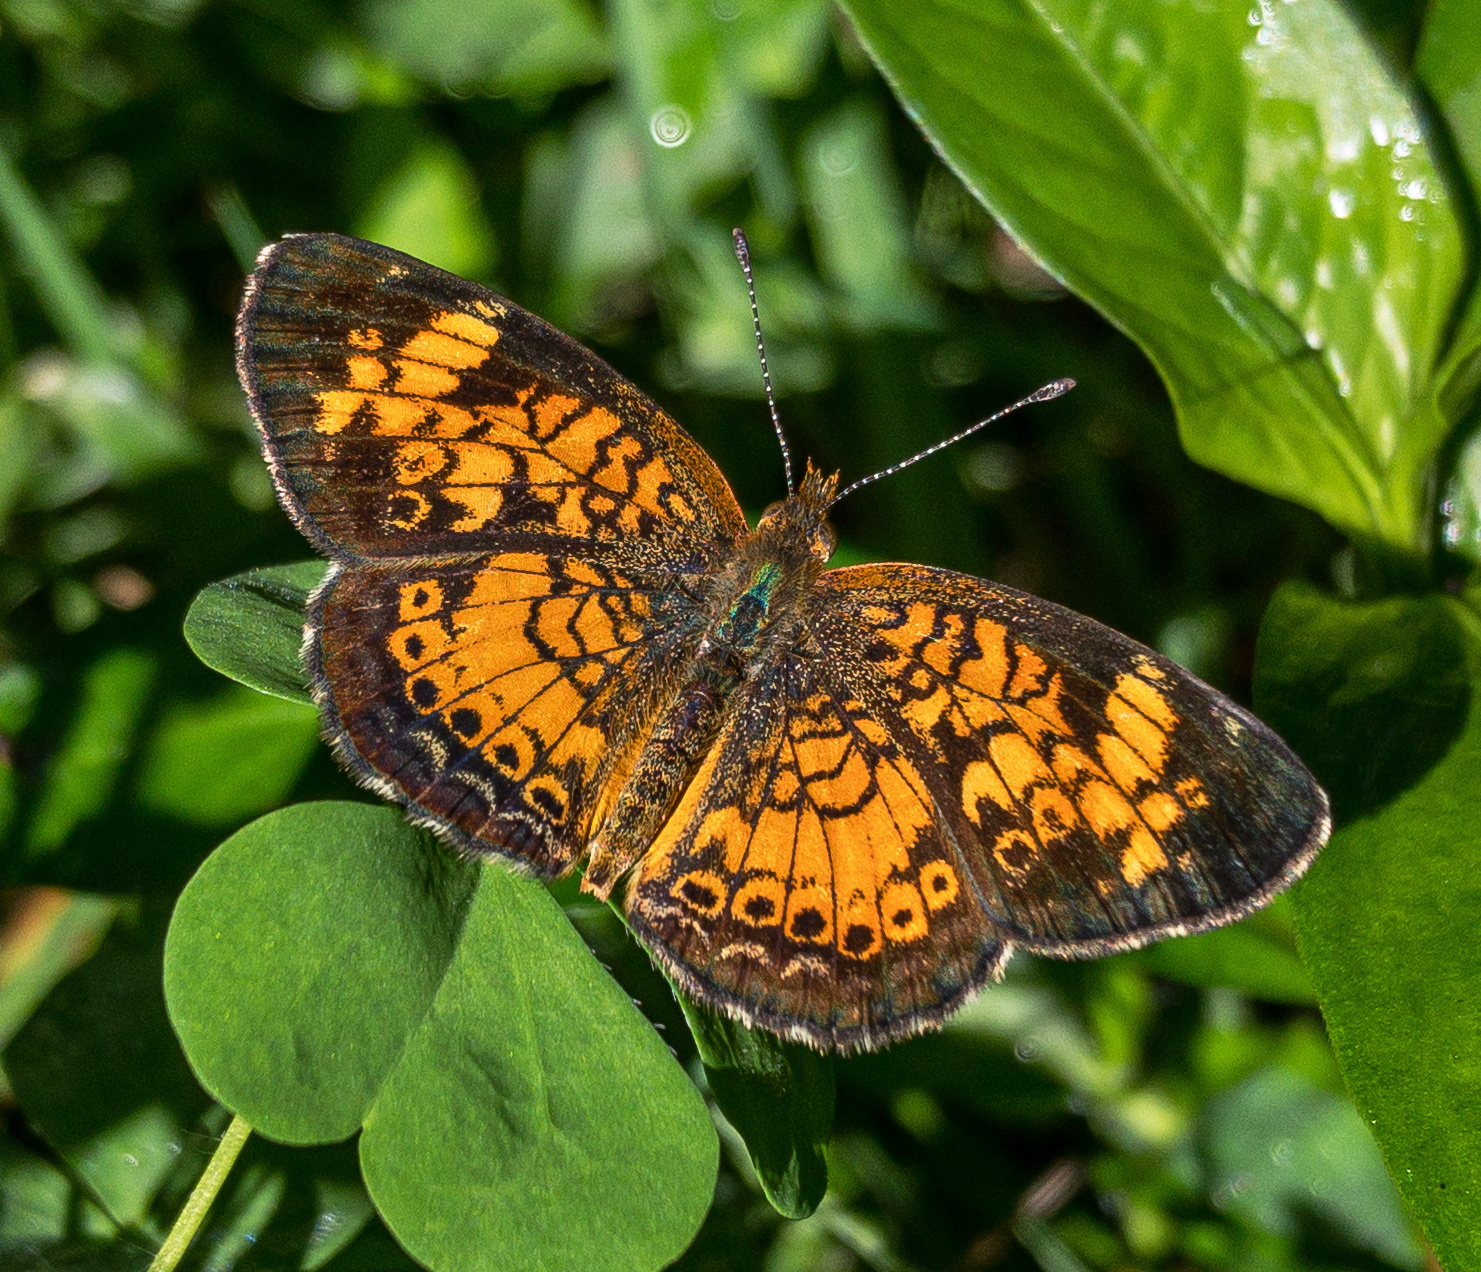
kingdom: Animalia
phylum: Arthropoda
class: Insecta
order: Lepidoptera
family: Nymphalidae
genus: Phyciodes
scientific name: Phyciodes tharos
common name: Pearl crescent
